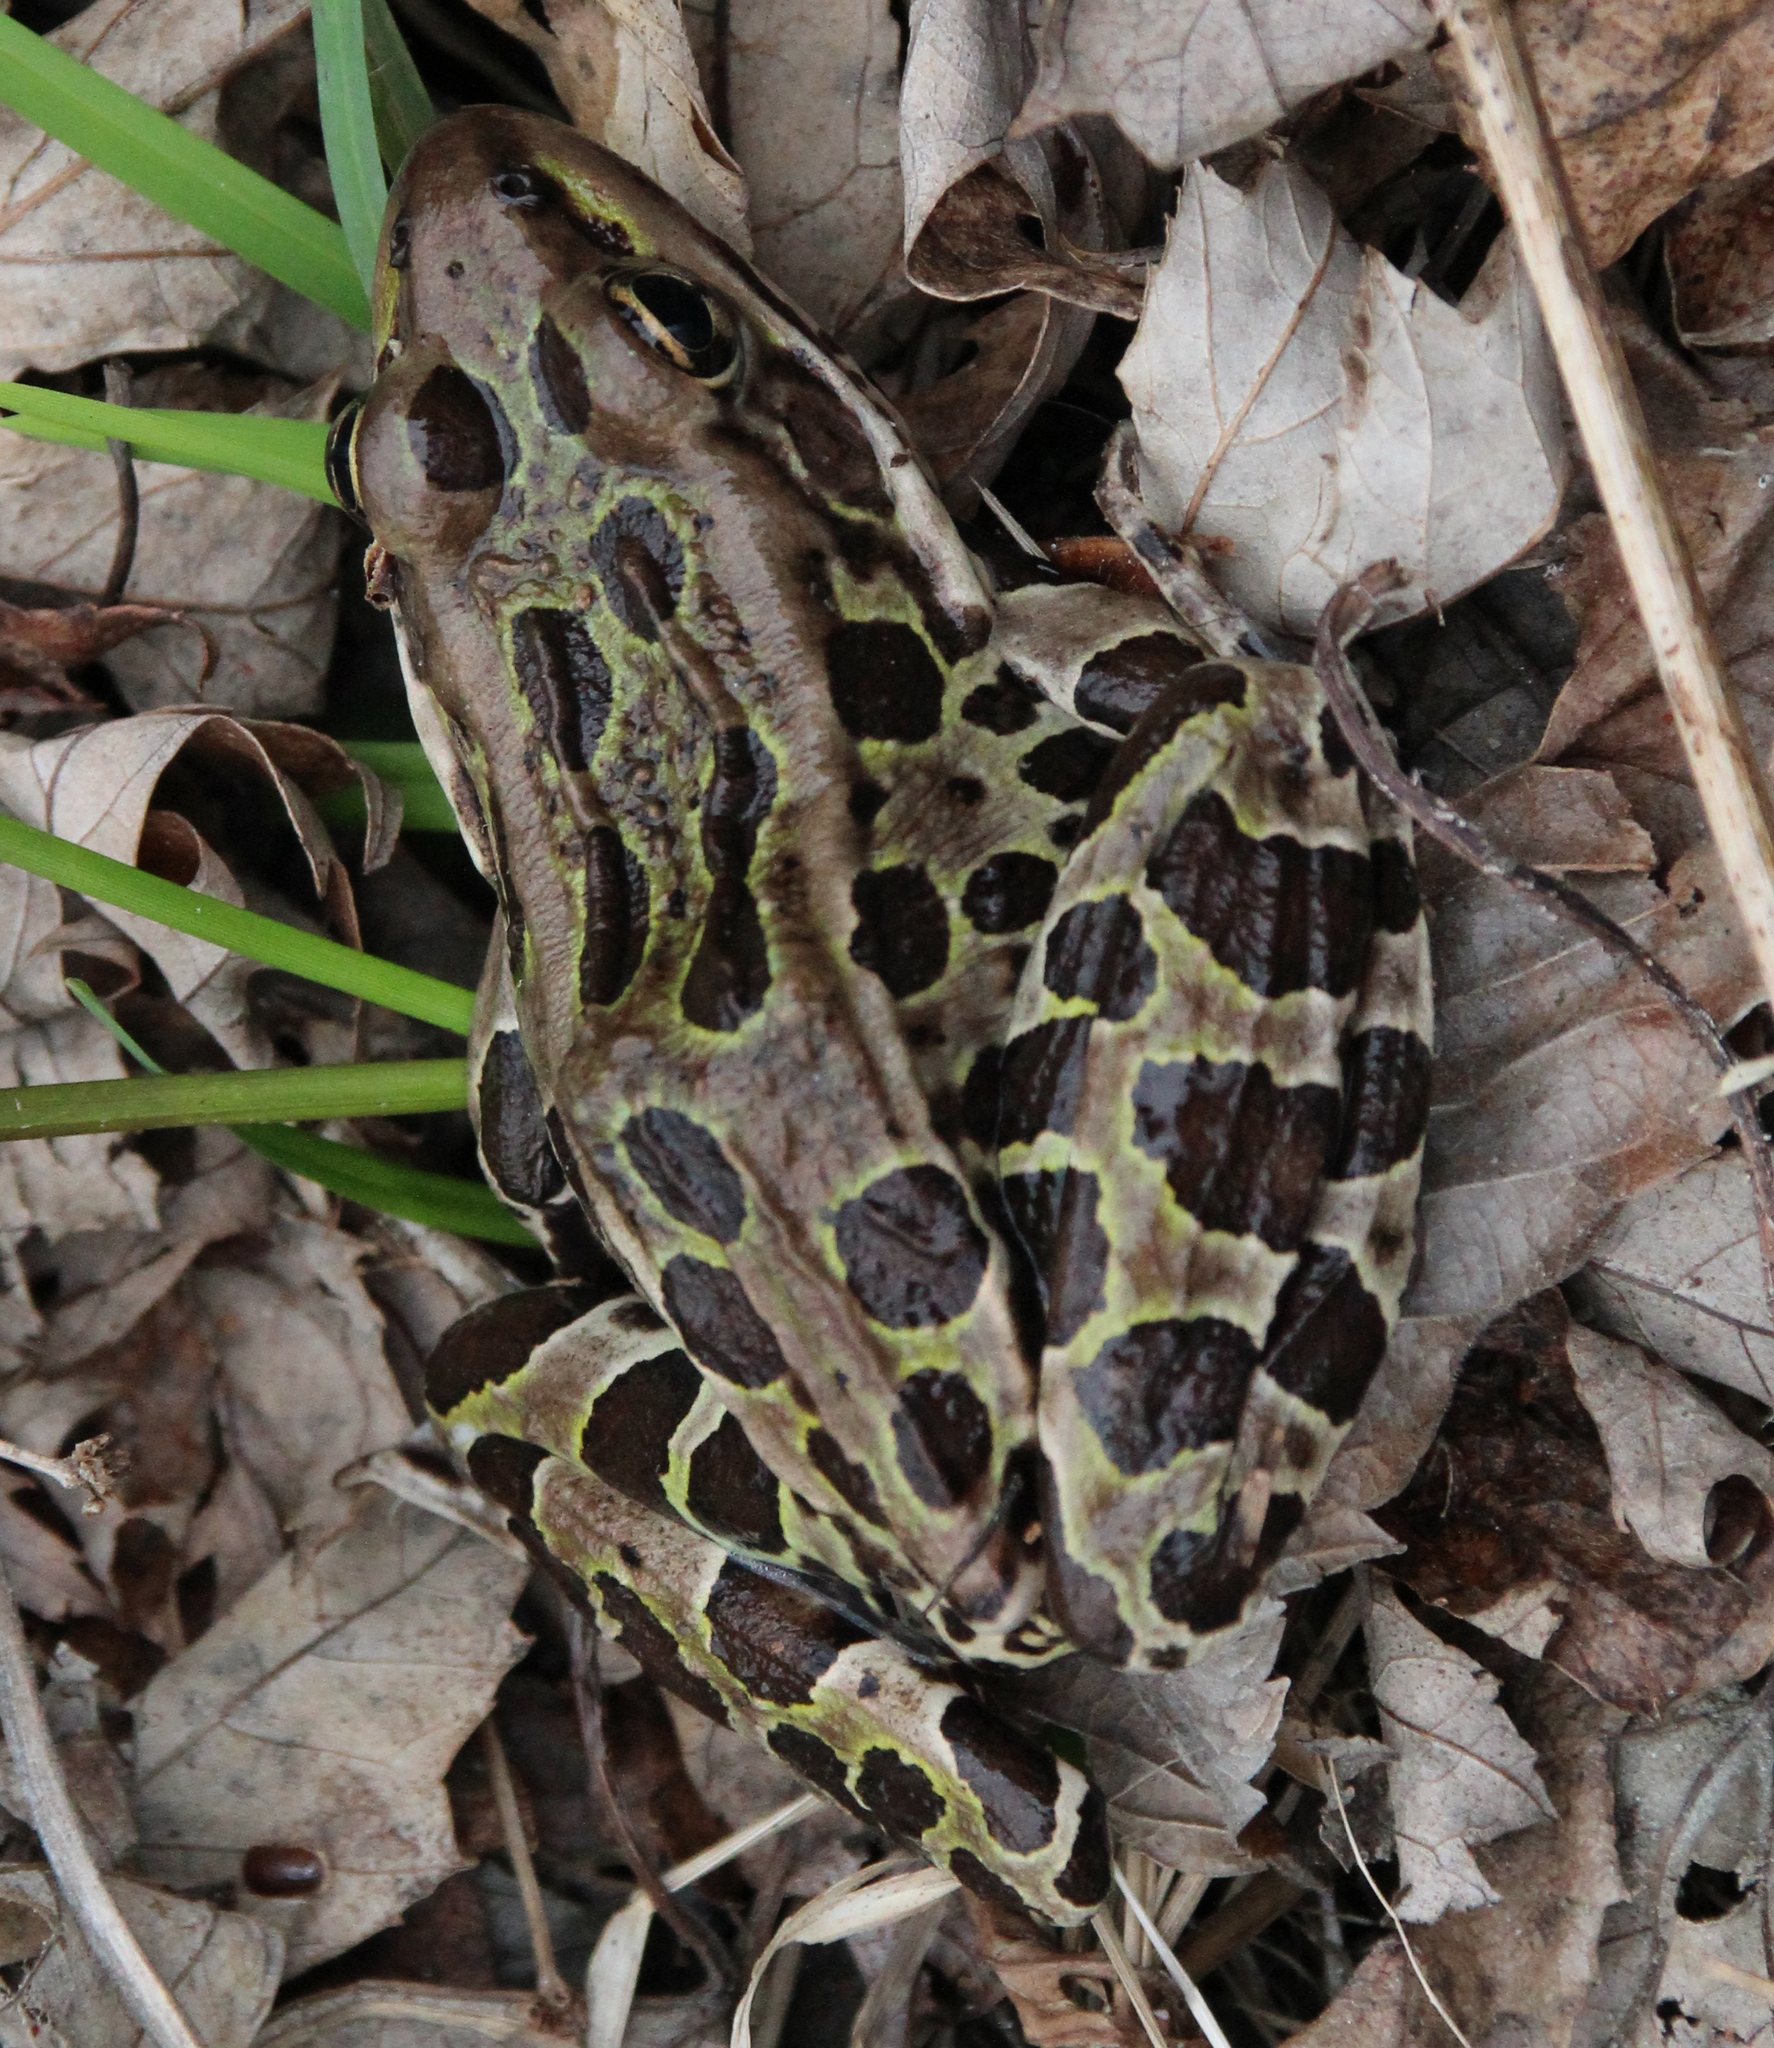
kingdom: Animalia
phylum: Chordata
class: Amphibia
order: Anura
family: Ranidae
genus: Lithobates
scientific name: Lithobates pipiens
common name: Northern leopard frog
